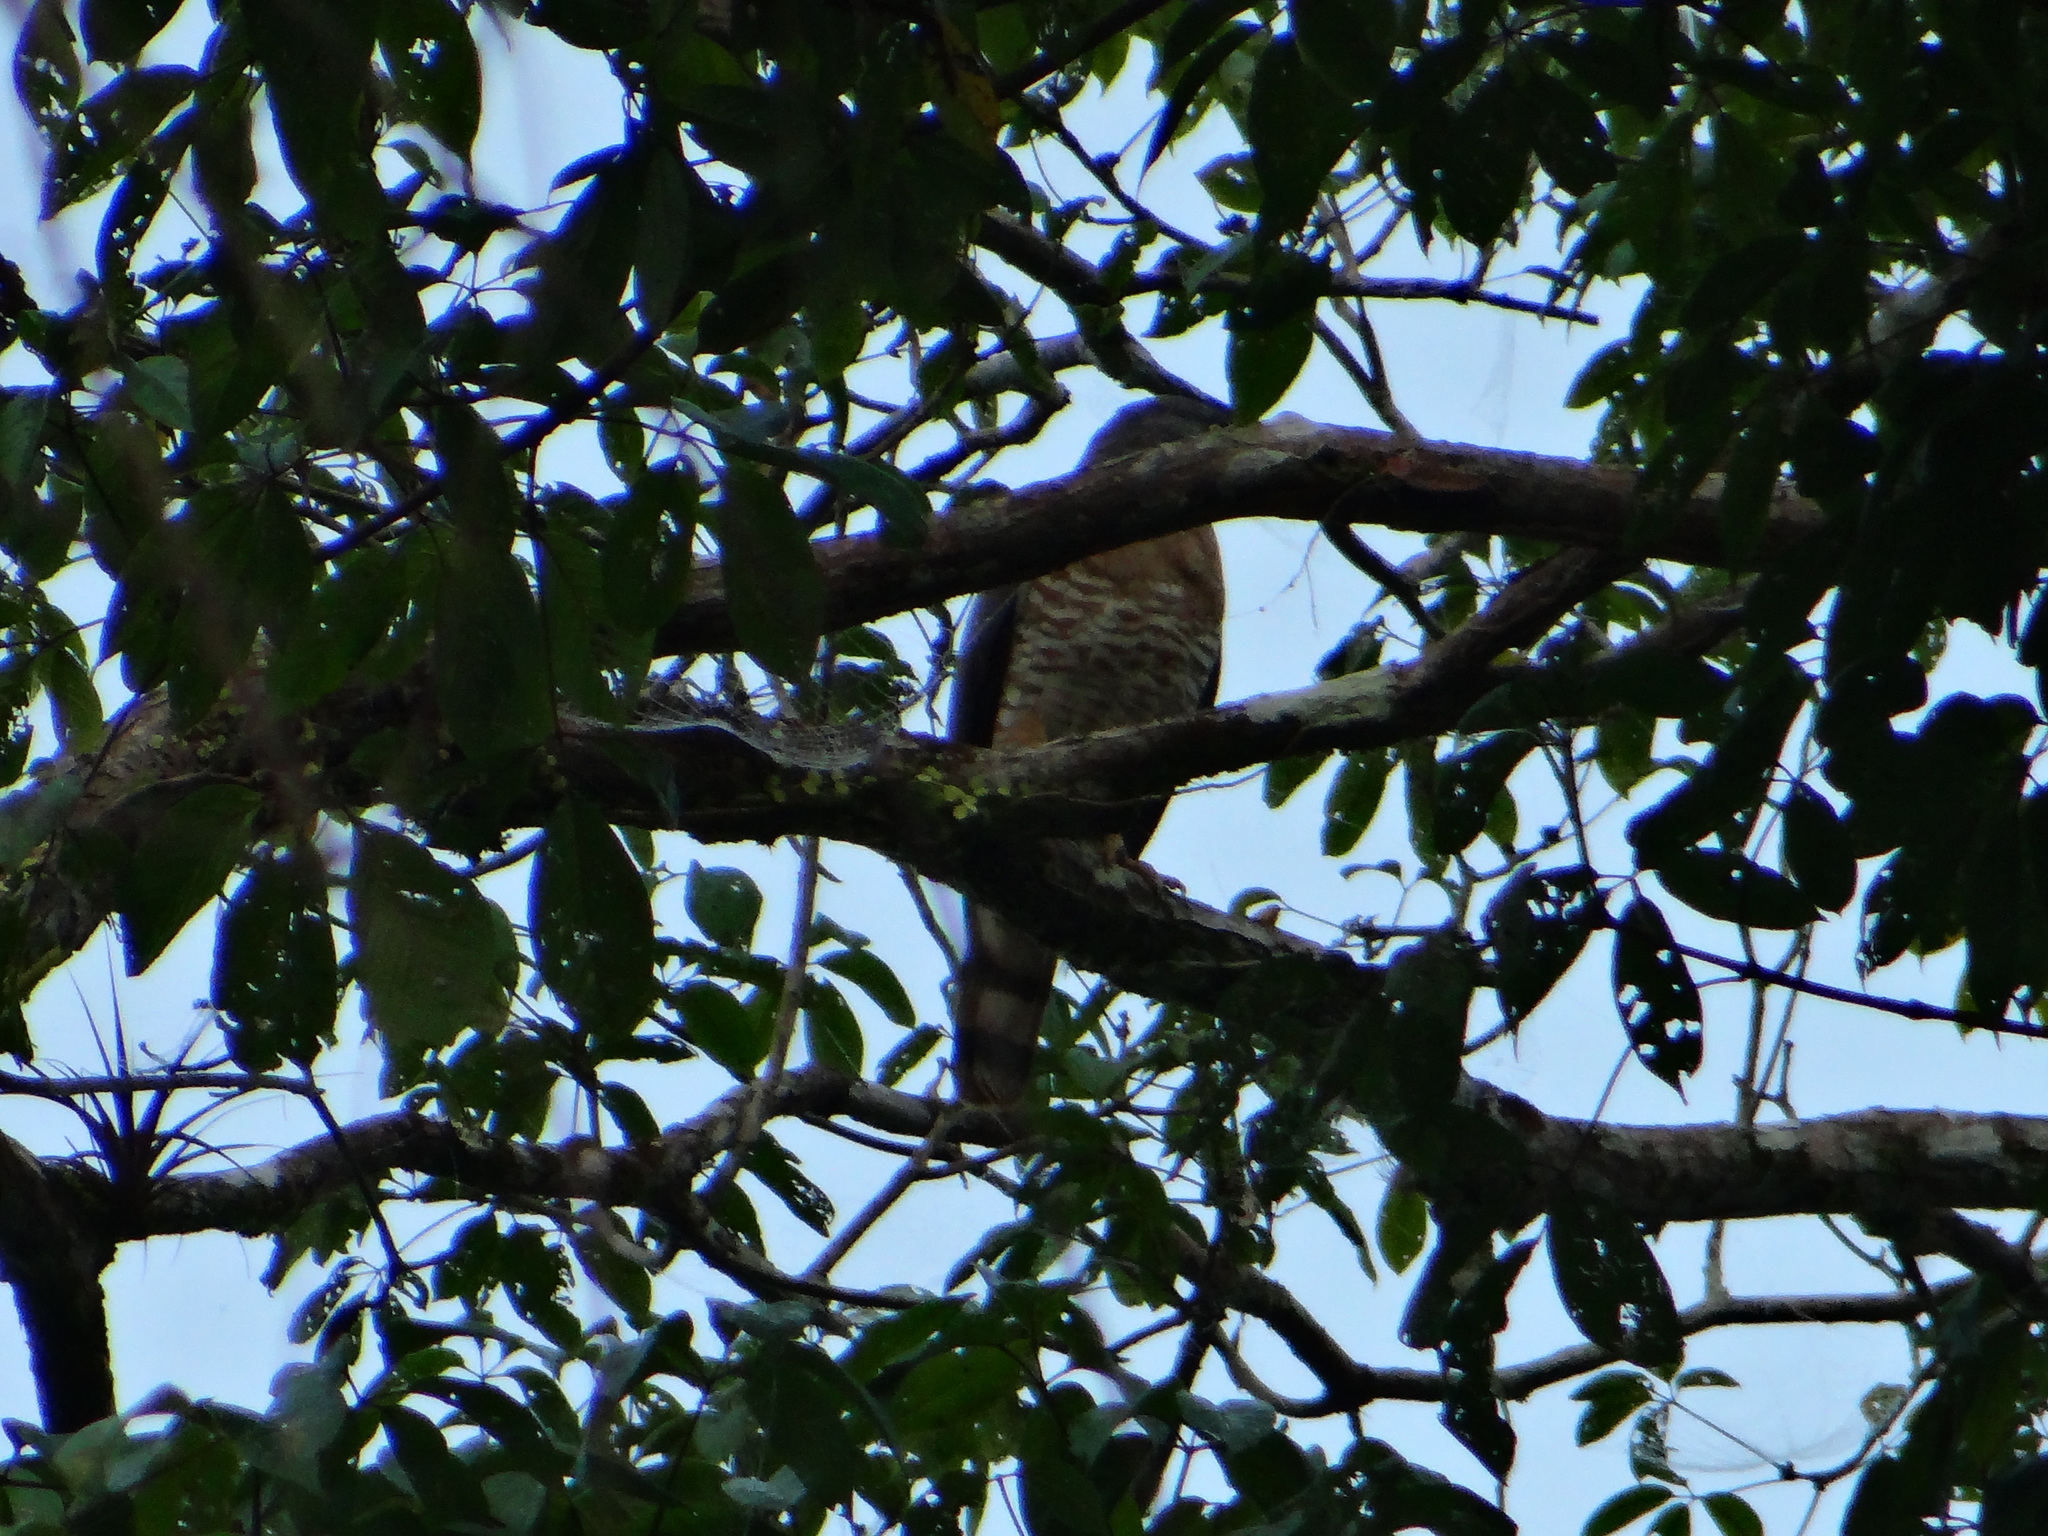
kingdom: Animalia
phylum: Chordata
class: Aves
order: Accipitriformes
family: Accipitridae
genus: Harpagus
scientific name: Harpagus bidentatus
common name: Double-toothed kite
